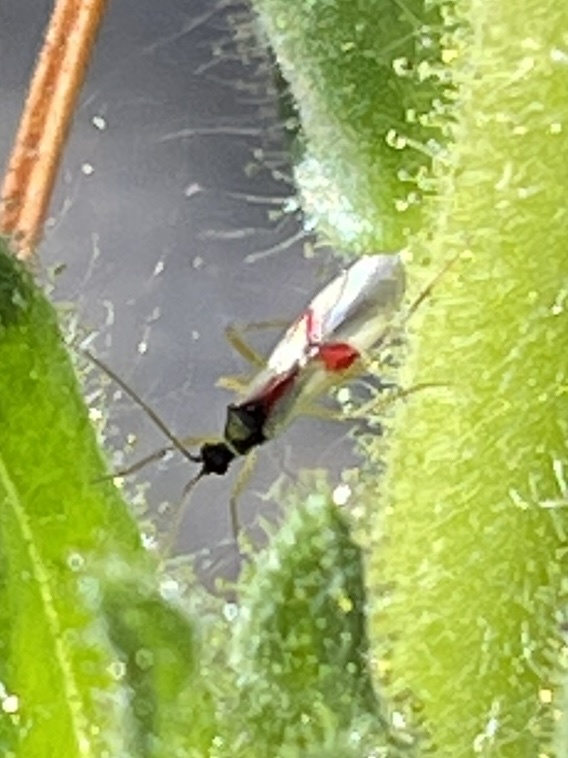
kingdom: Animalia
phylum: Arthropoda
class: Insecta
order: Hemiptera
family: Miridae
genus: Tupiocoris
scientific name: Tupiocoris californicus
